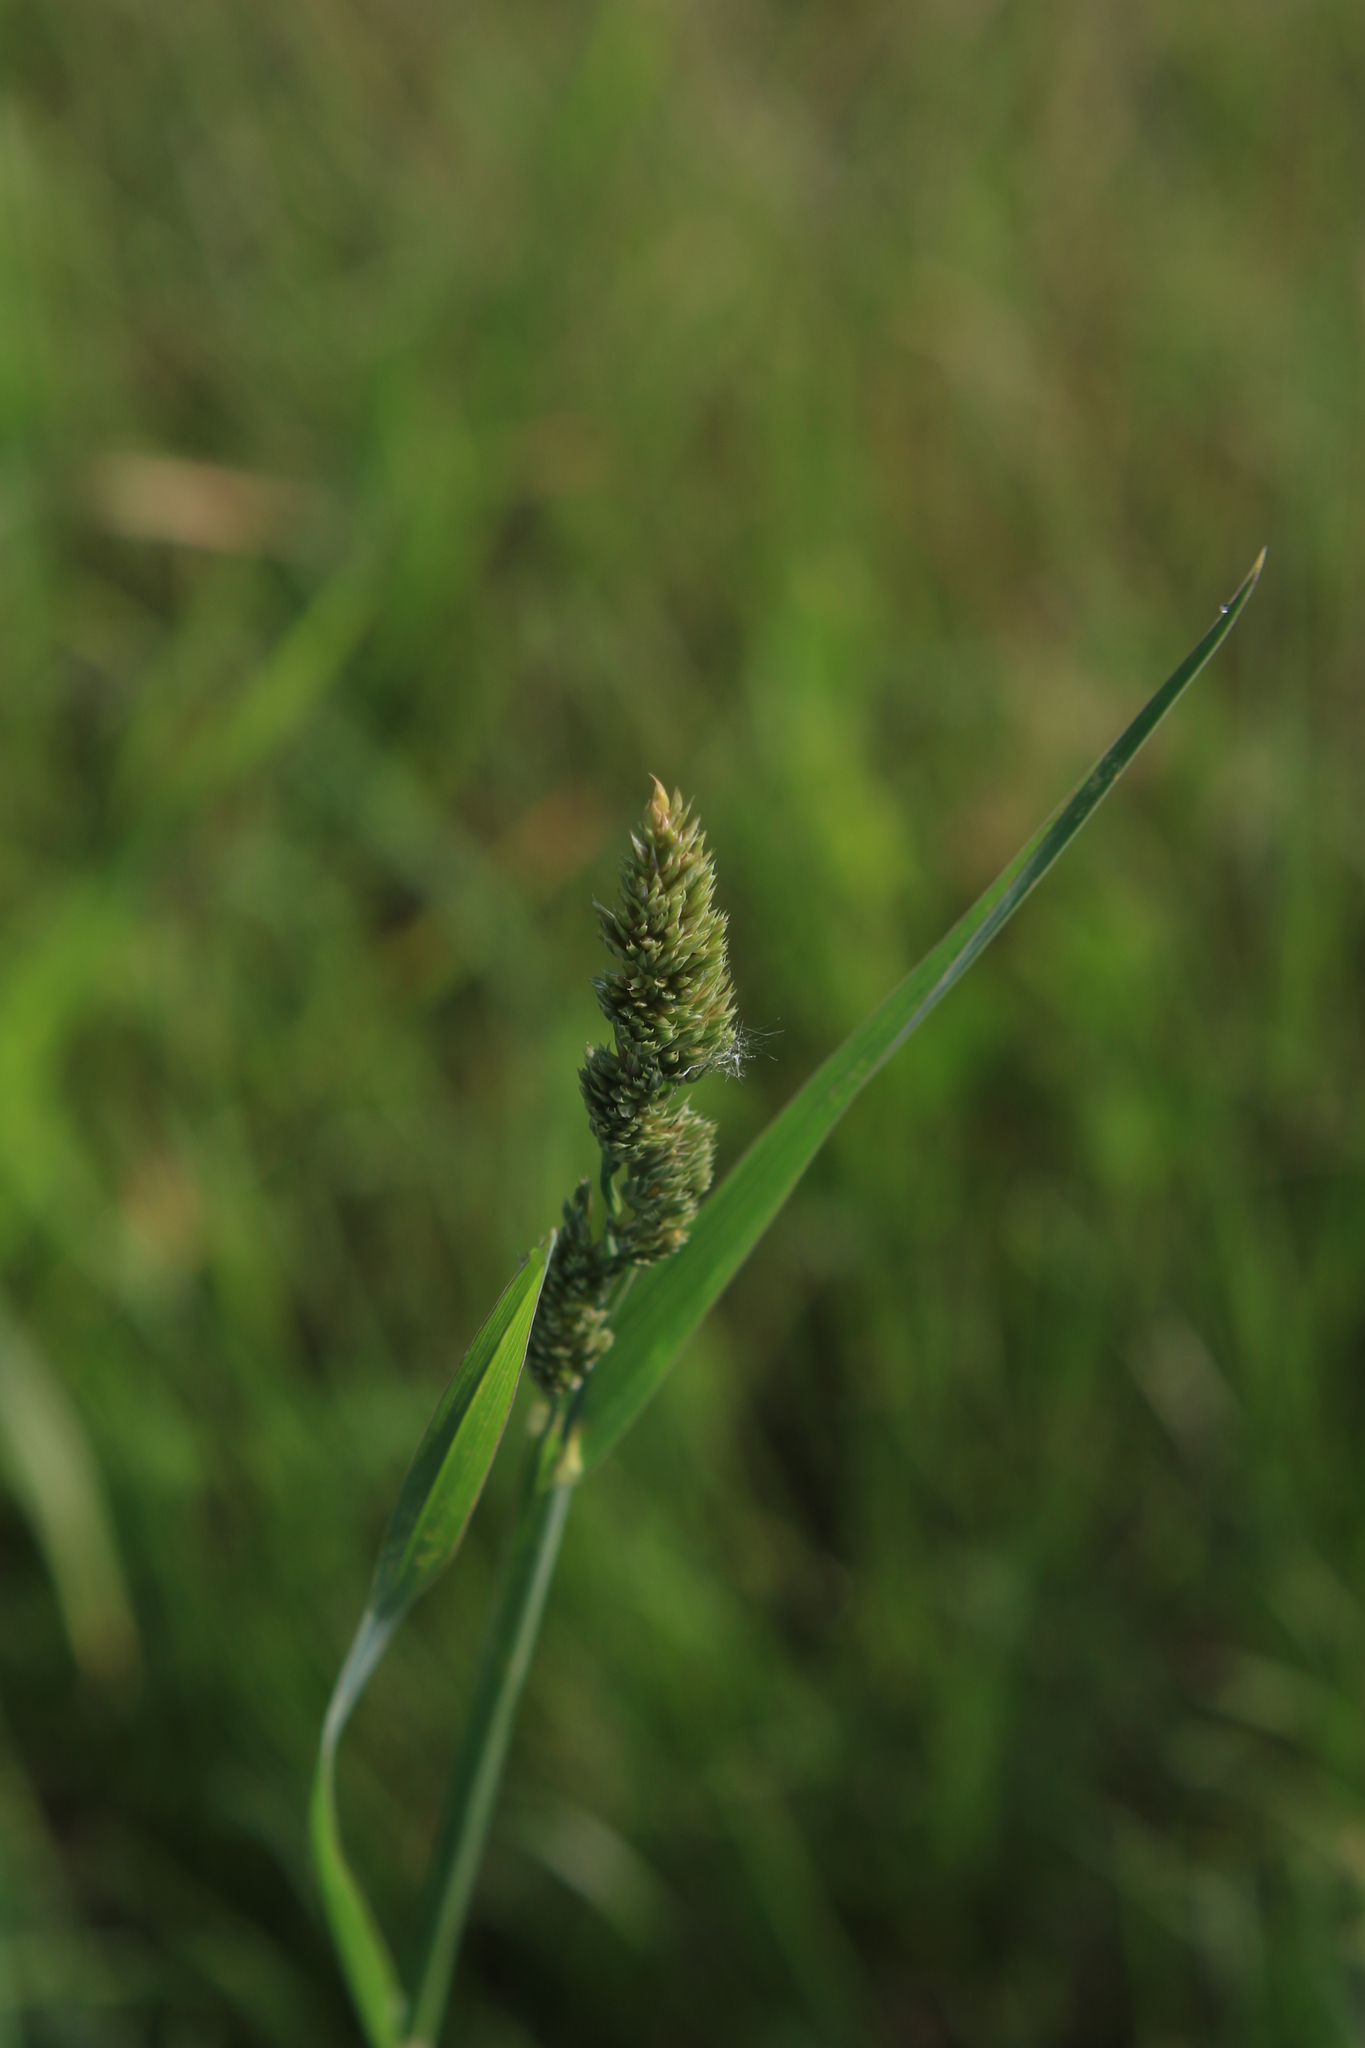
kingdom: Plantae
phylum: Tracheophyta
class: Liliopsida
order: Poales
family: Poaceae
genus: Dactylis
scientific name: Dactylis glomerata
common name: Orchardgrass
